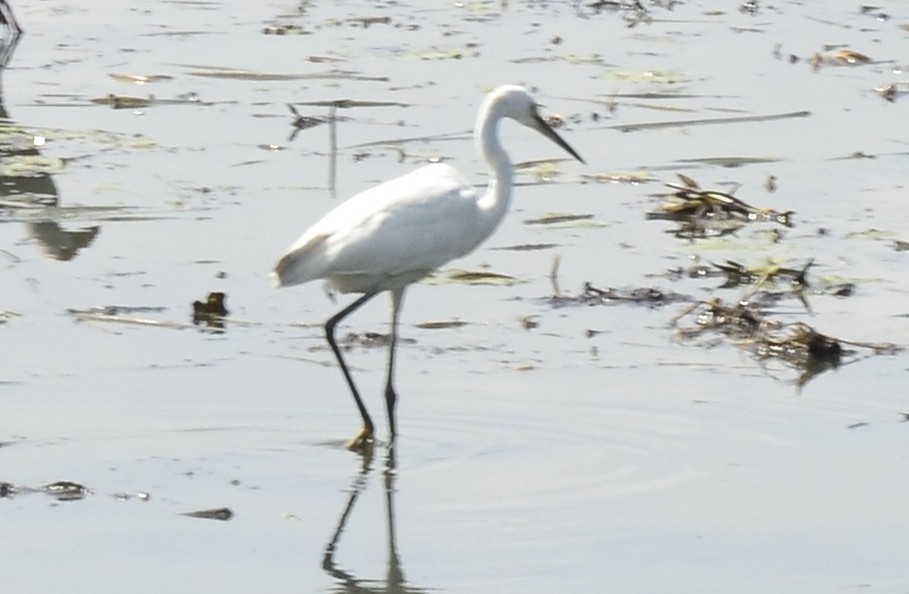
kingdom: Animalia
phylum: Chordata
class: Aves
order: Pelecaniformes
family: Ardeidae
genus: Egretta
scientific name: Egretta garzetta
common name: Little egret
